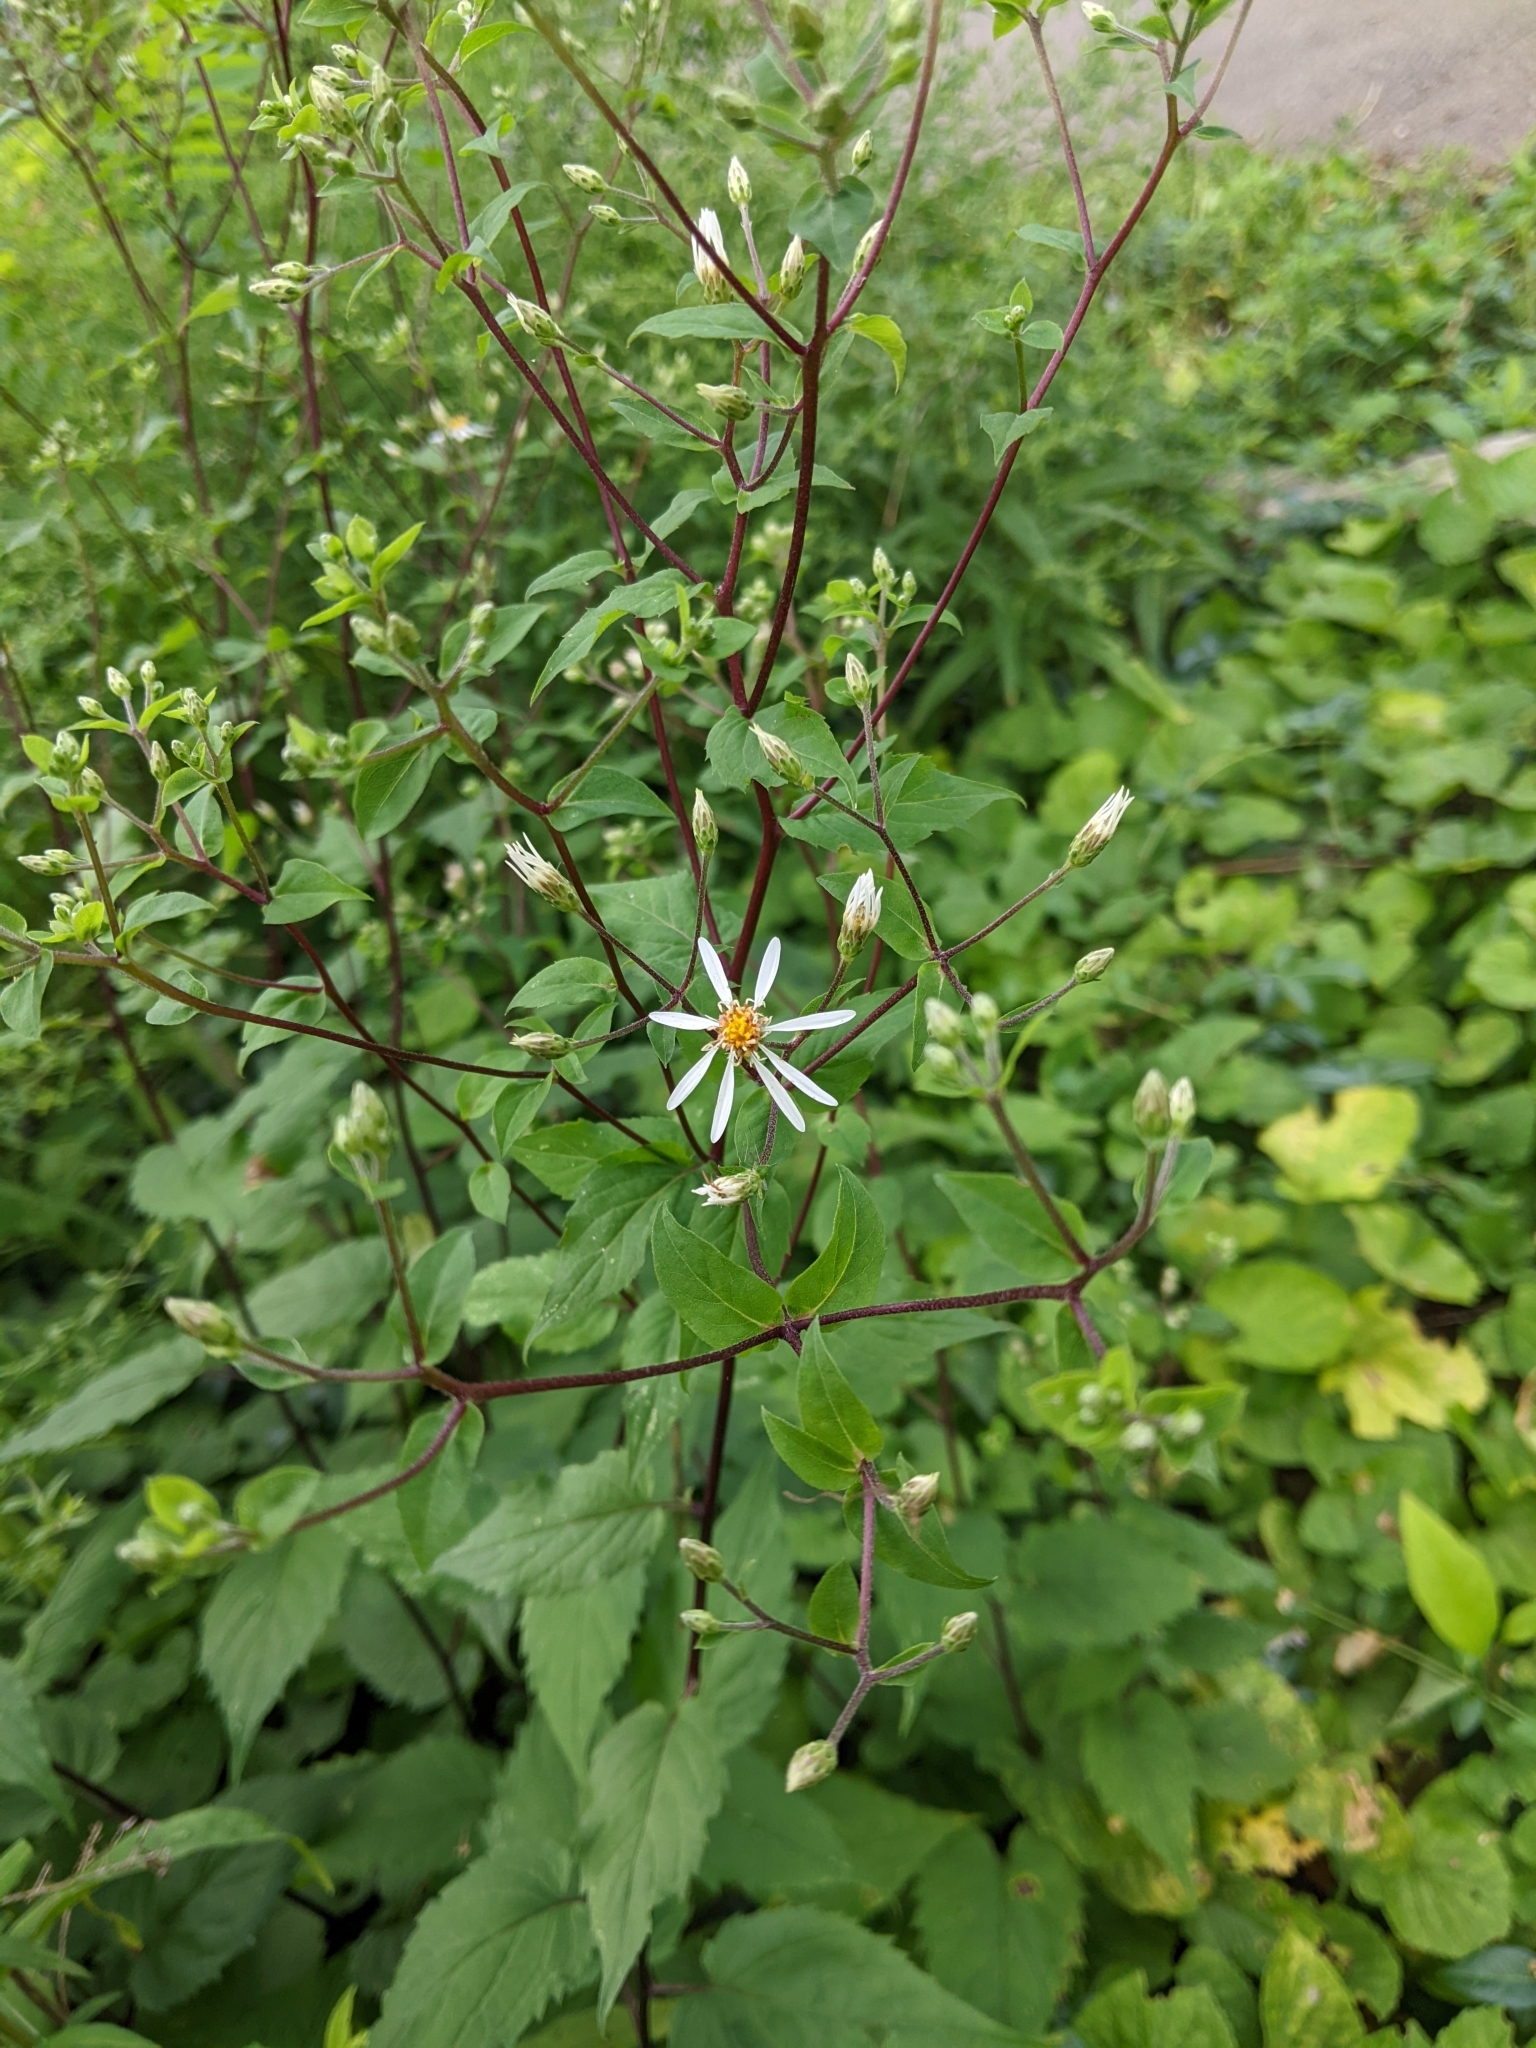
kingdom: Plantae
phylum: Tracheophyta
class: Magnoliopsida
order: Asterales
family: Asteraceae
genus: Eurybia
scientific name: Eurybia divaricata
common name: White wood aster
